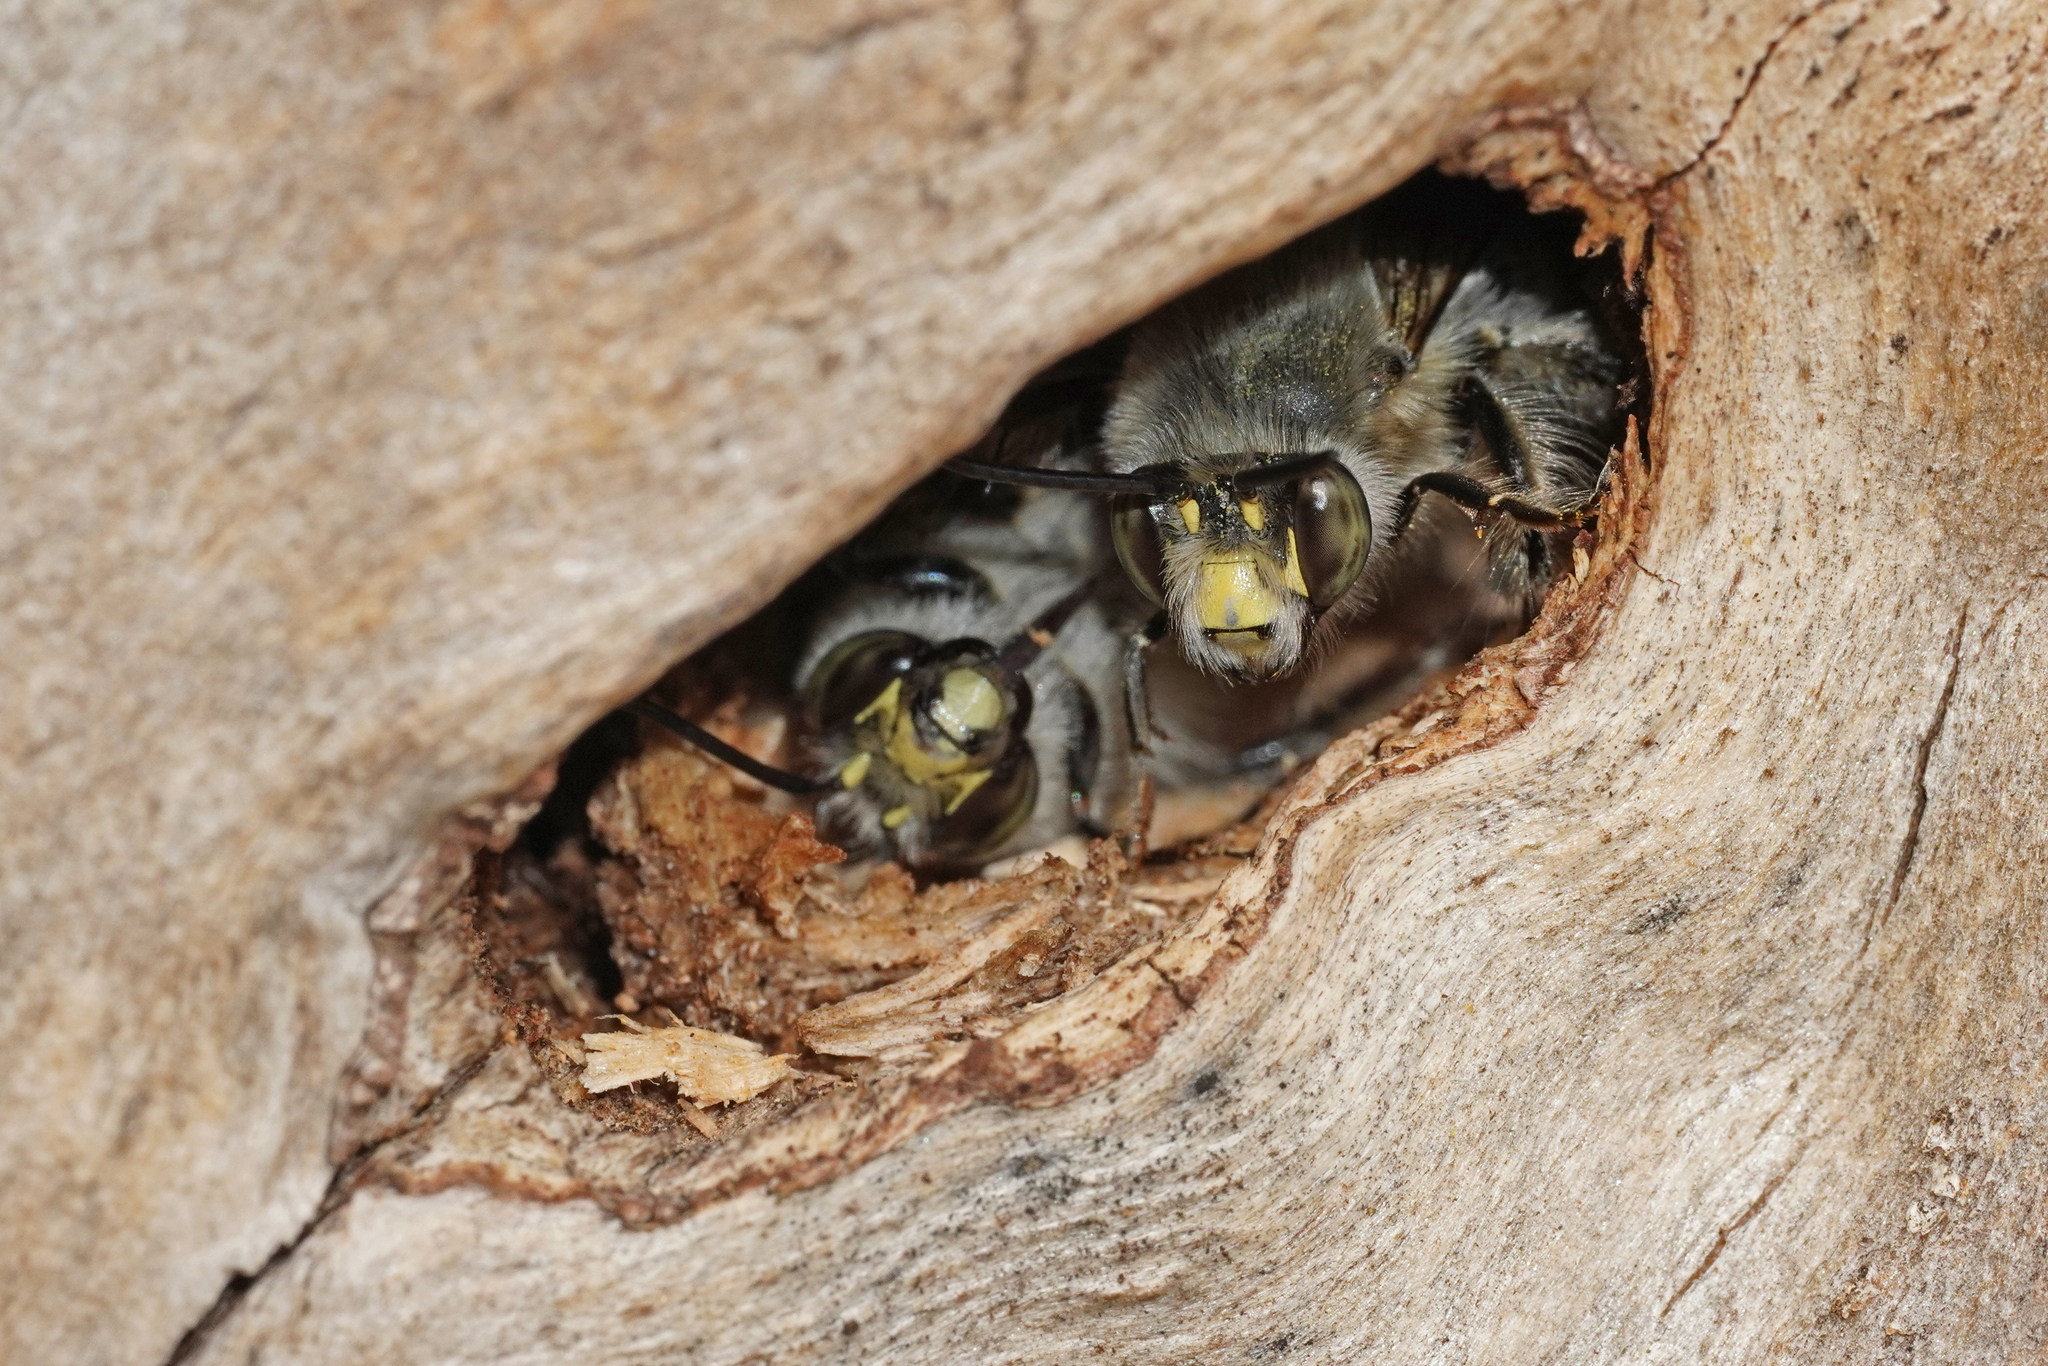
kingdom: Animalia
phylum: Arthropoda
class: Insecta
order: Hymenoptera
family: Apidae
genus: Anthophora
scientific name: Anthophora crinipes
